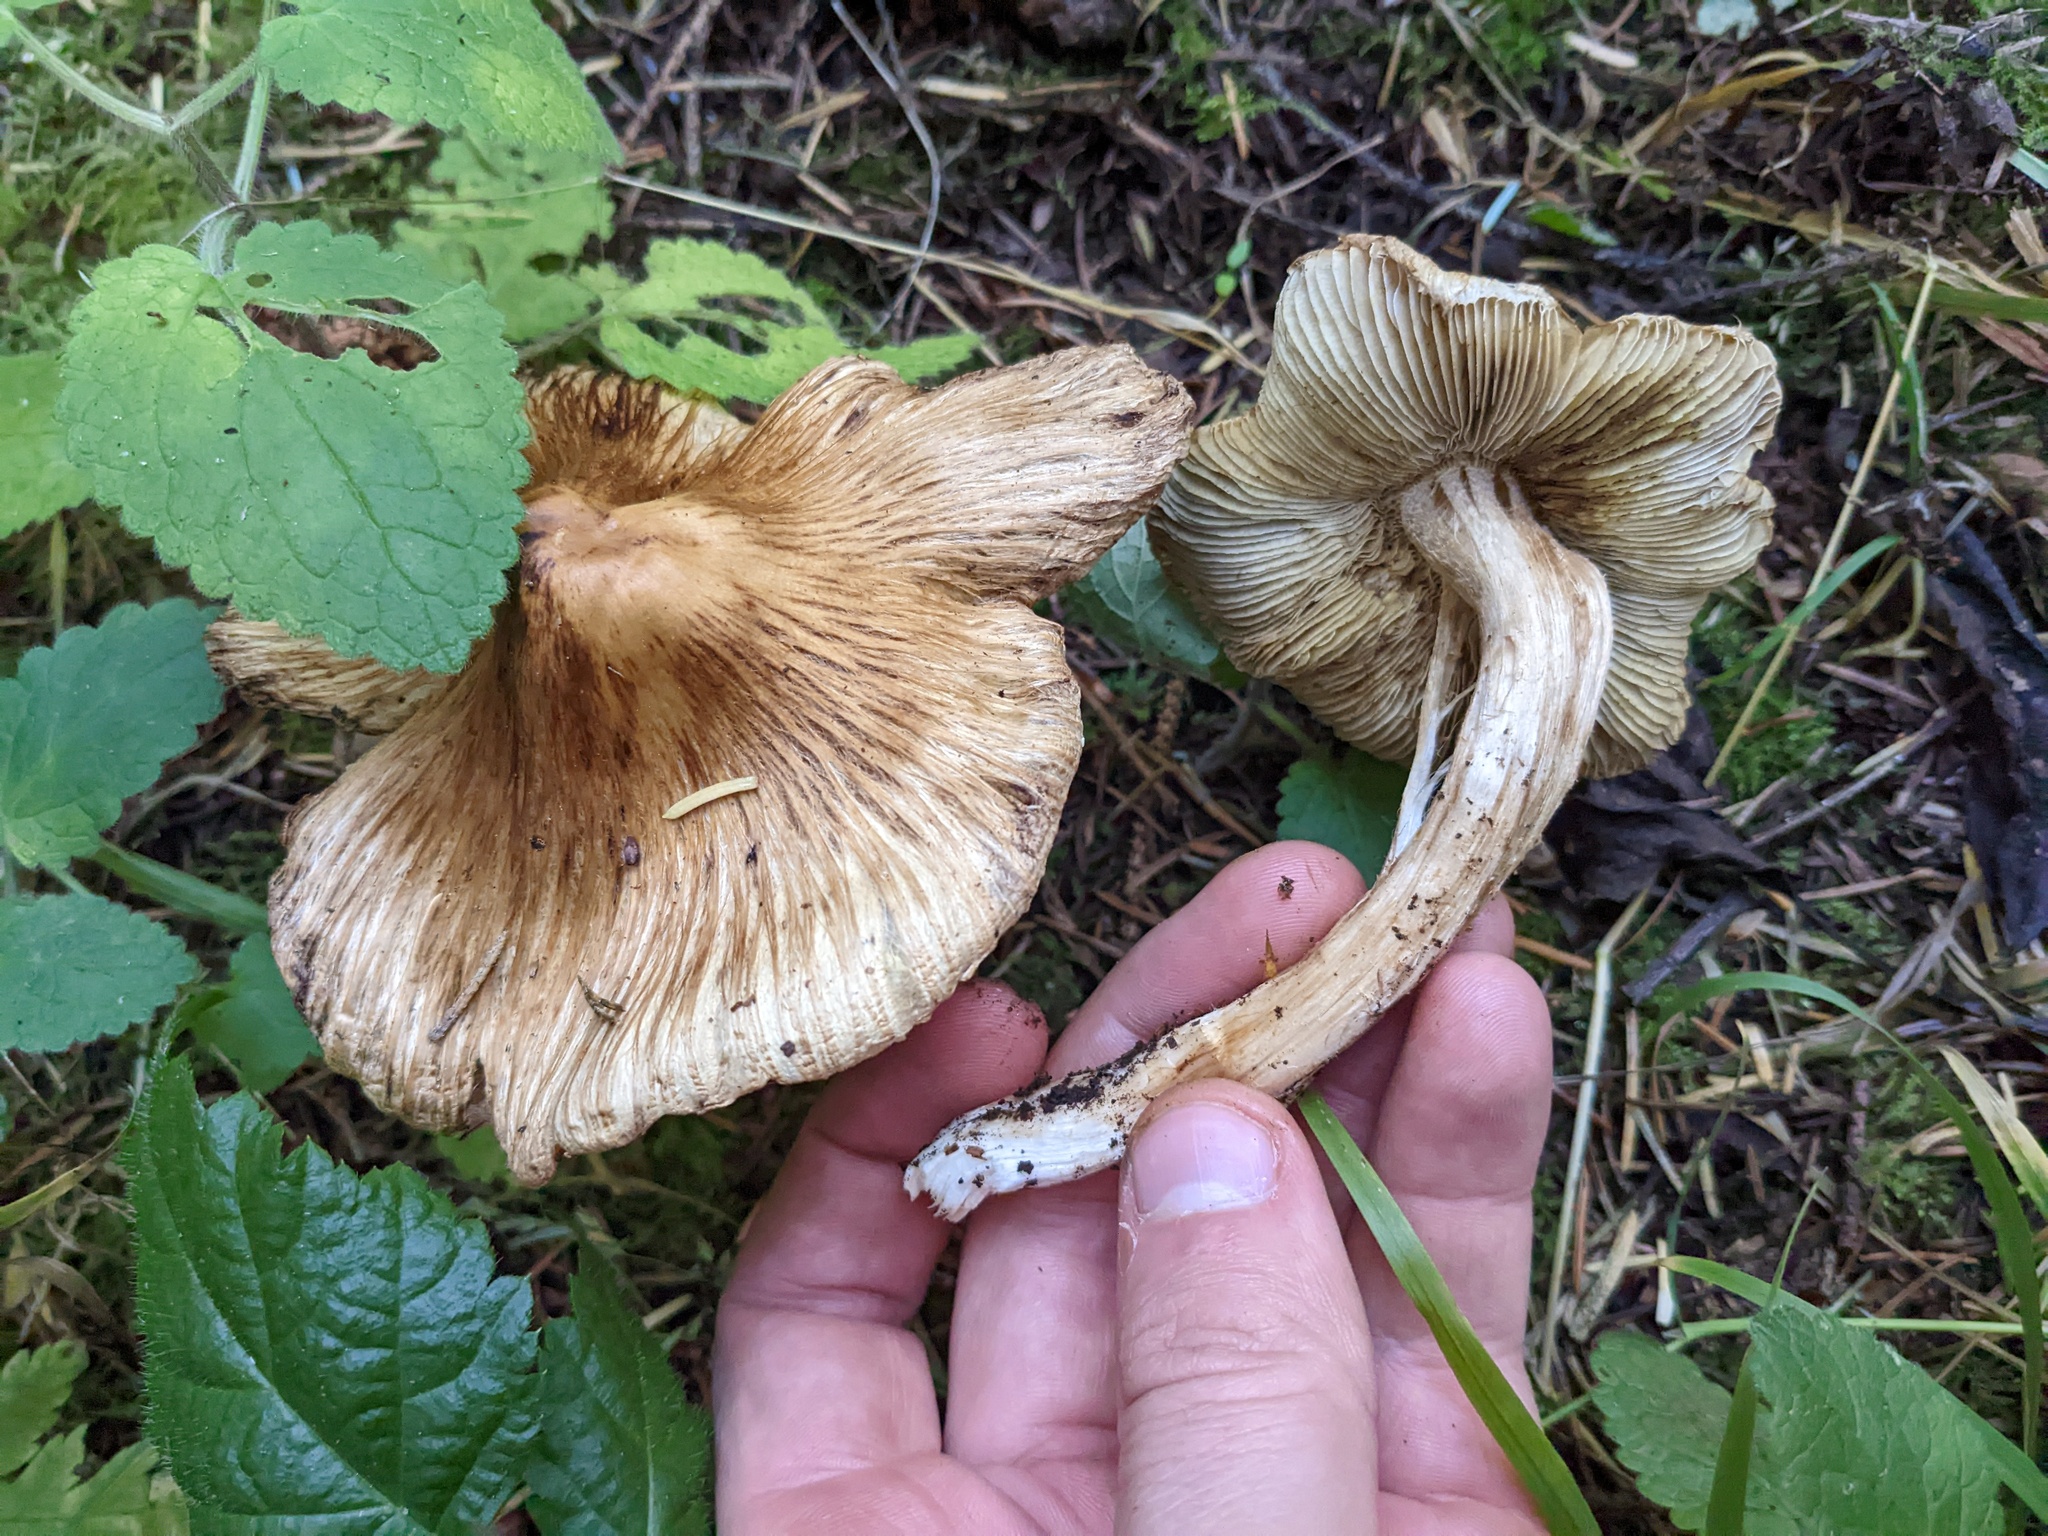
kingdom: Fungi
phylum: Basidiomycota
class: Agaricomycetes
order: Agaricales
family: Inocybaceae
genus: Pseudosperma
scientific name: Pseudosperma sororium
